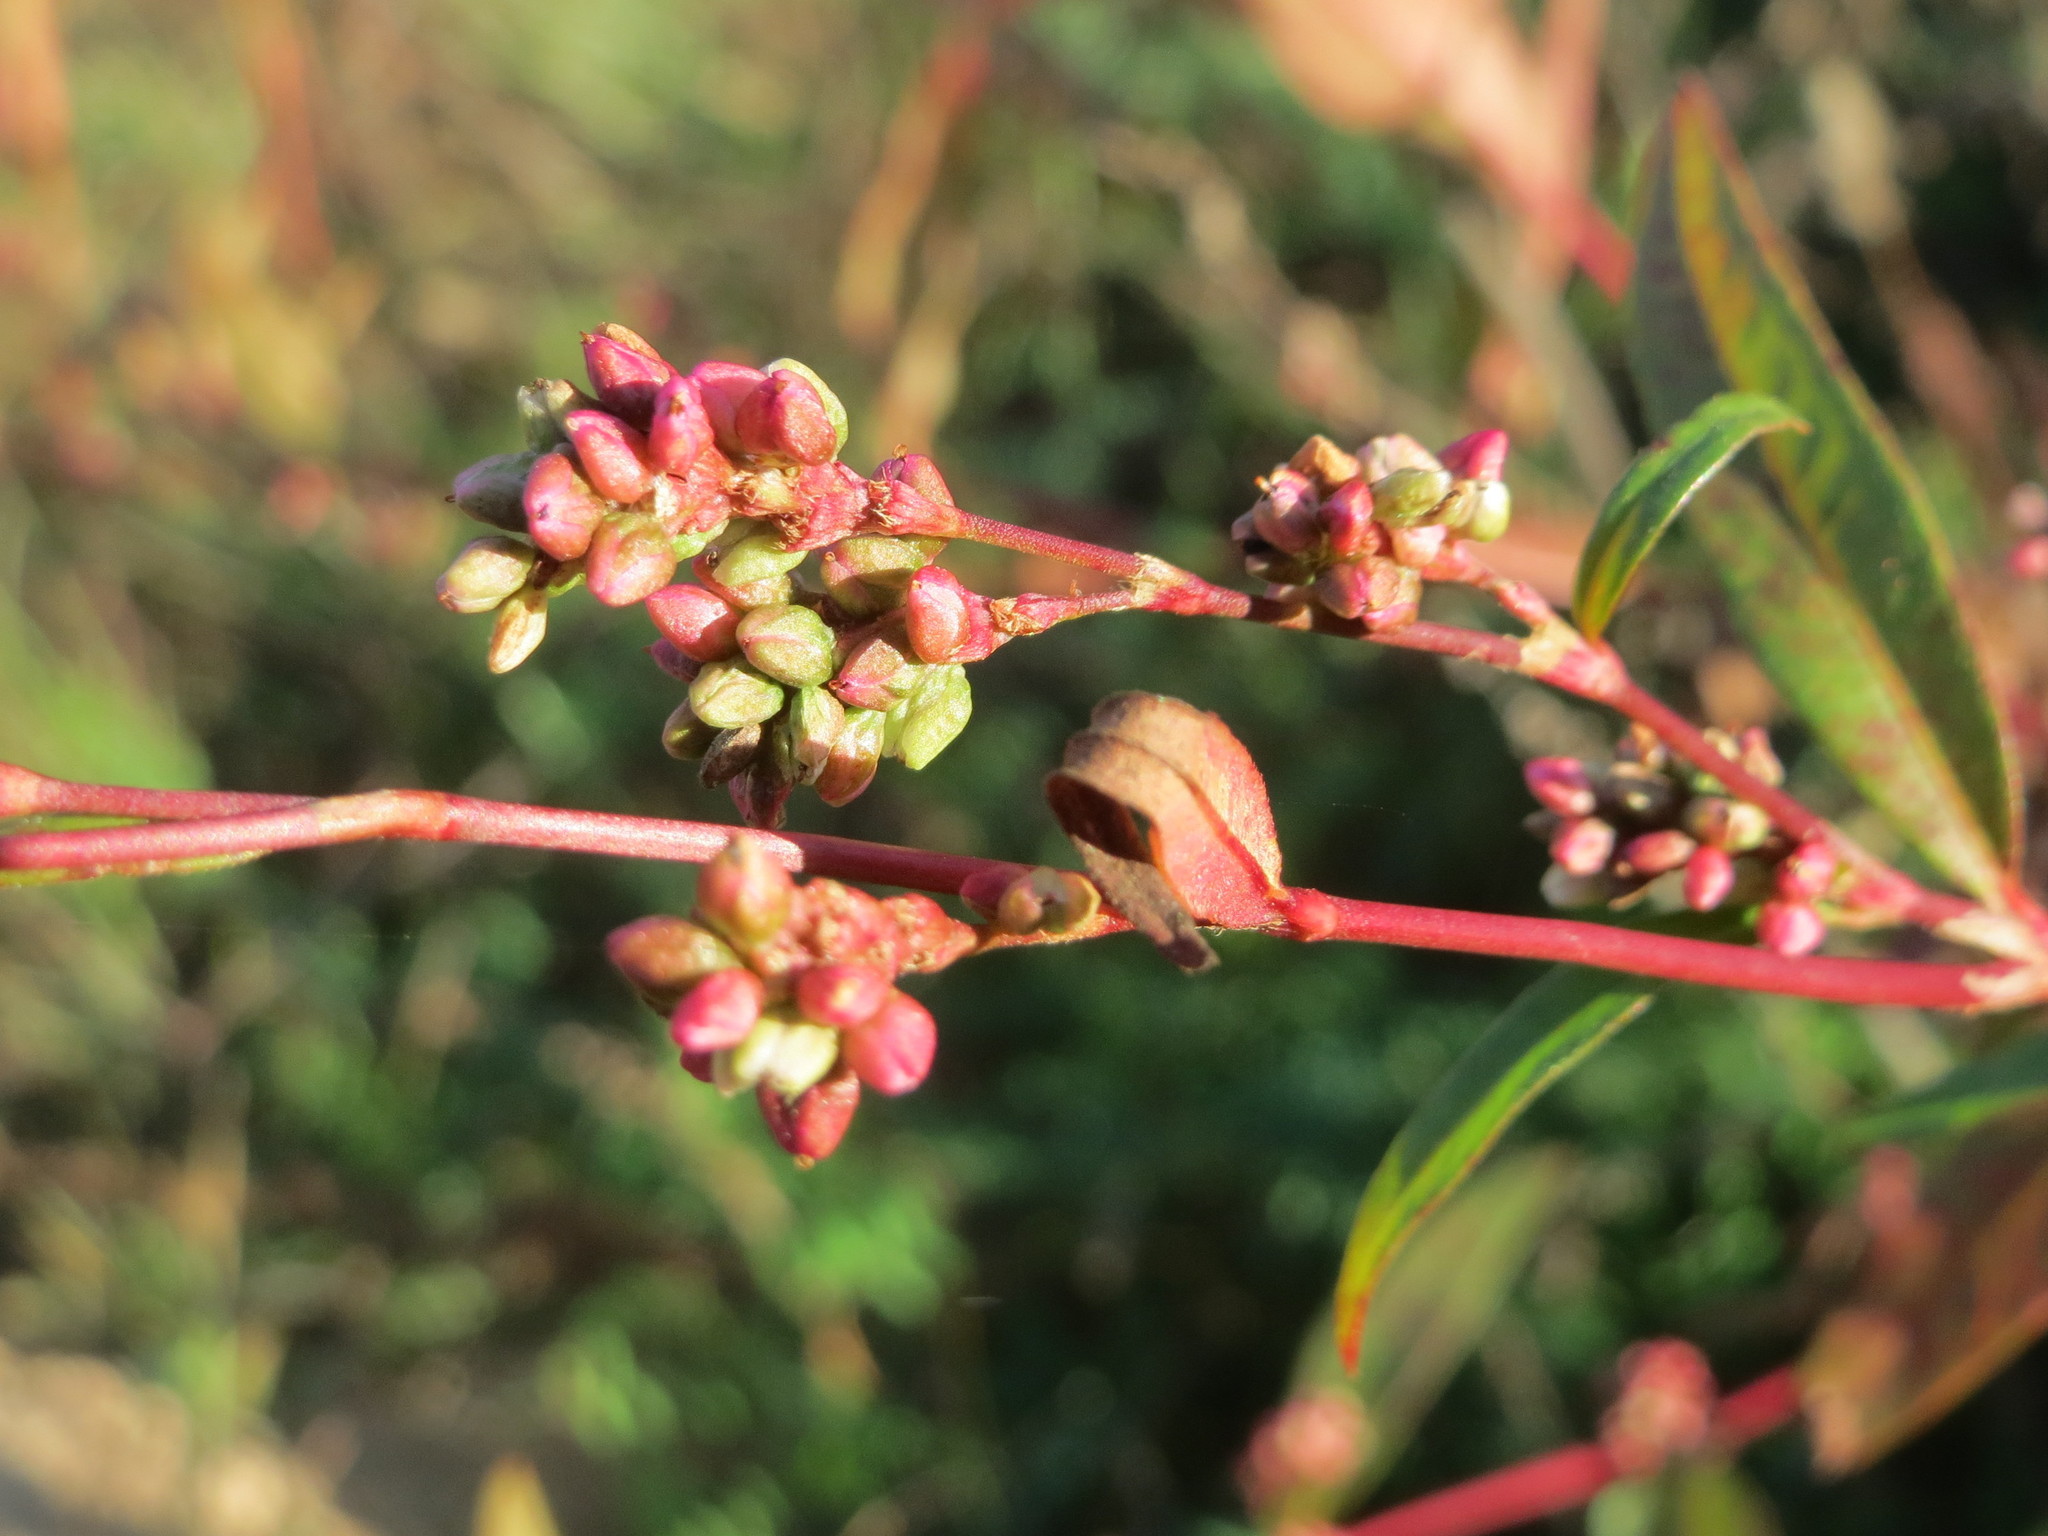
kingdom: Plantae
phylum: Tracheophyta
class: Magnoliopsida
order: Caryophyllales
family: Polygonaceae
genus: Persicaria
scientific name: Persicaria lapathifolia
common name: Curlytop knotweed
